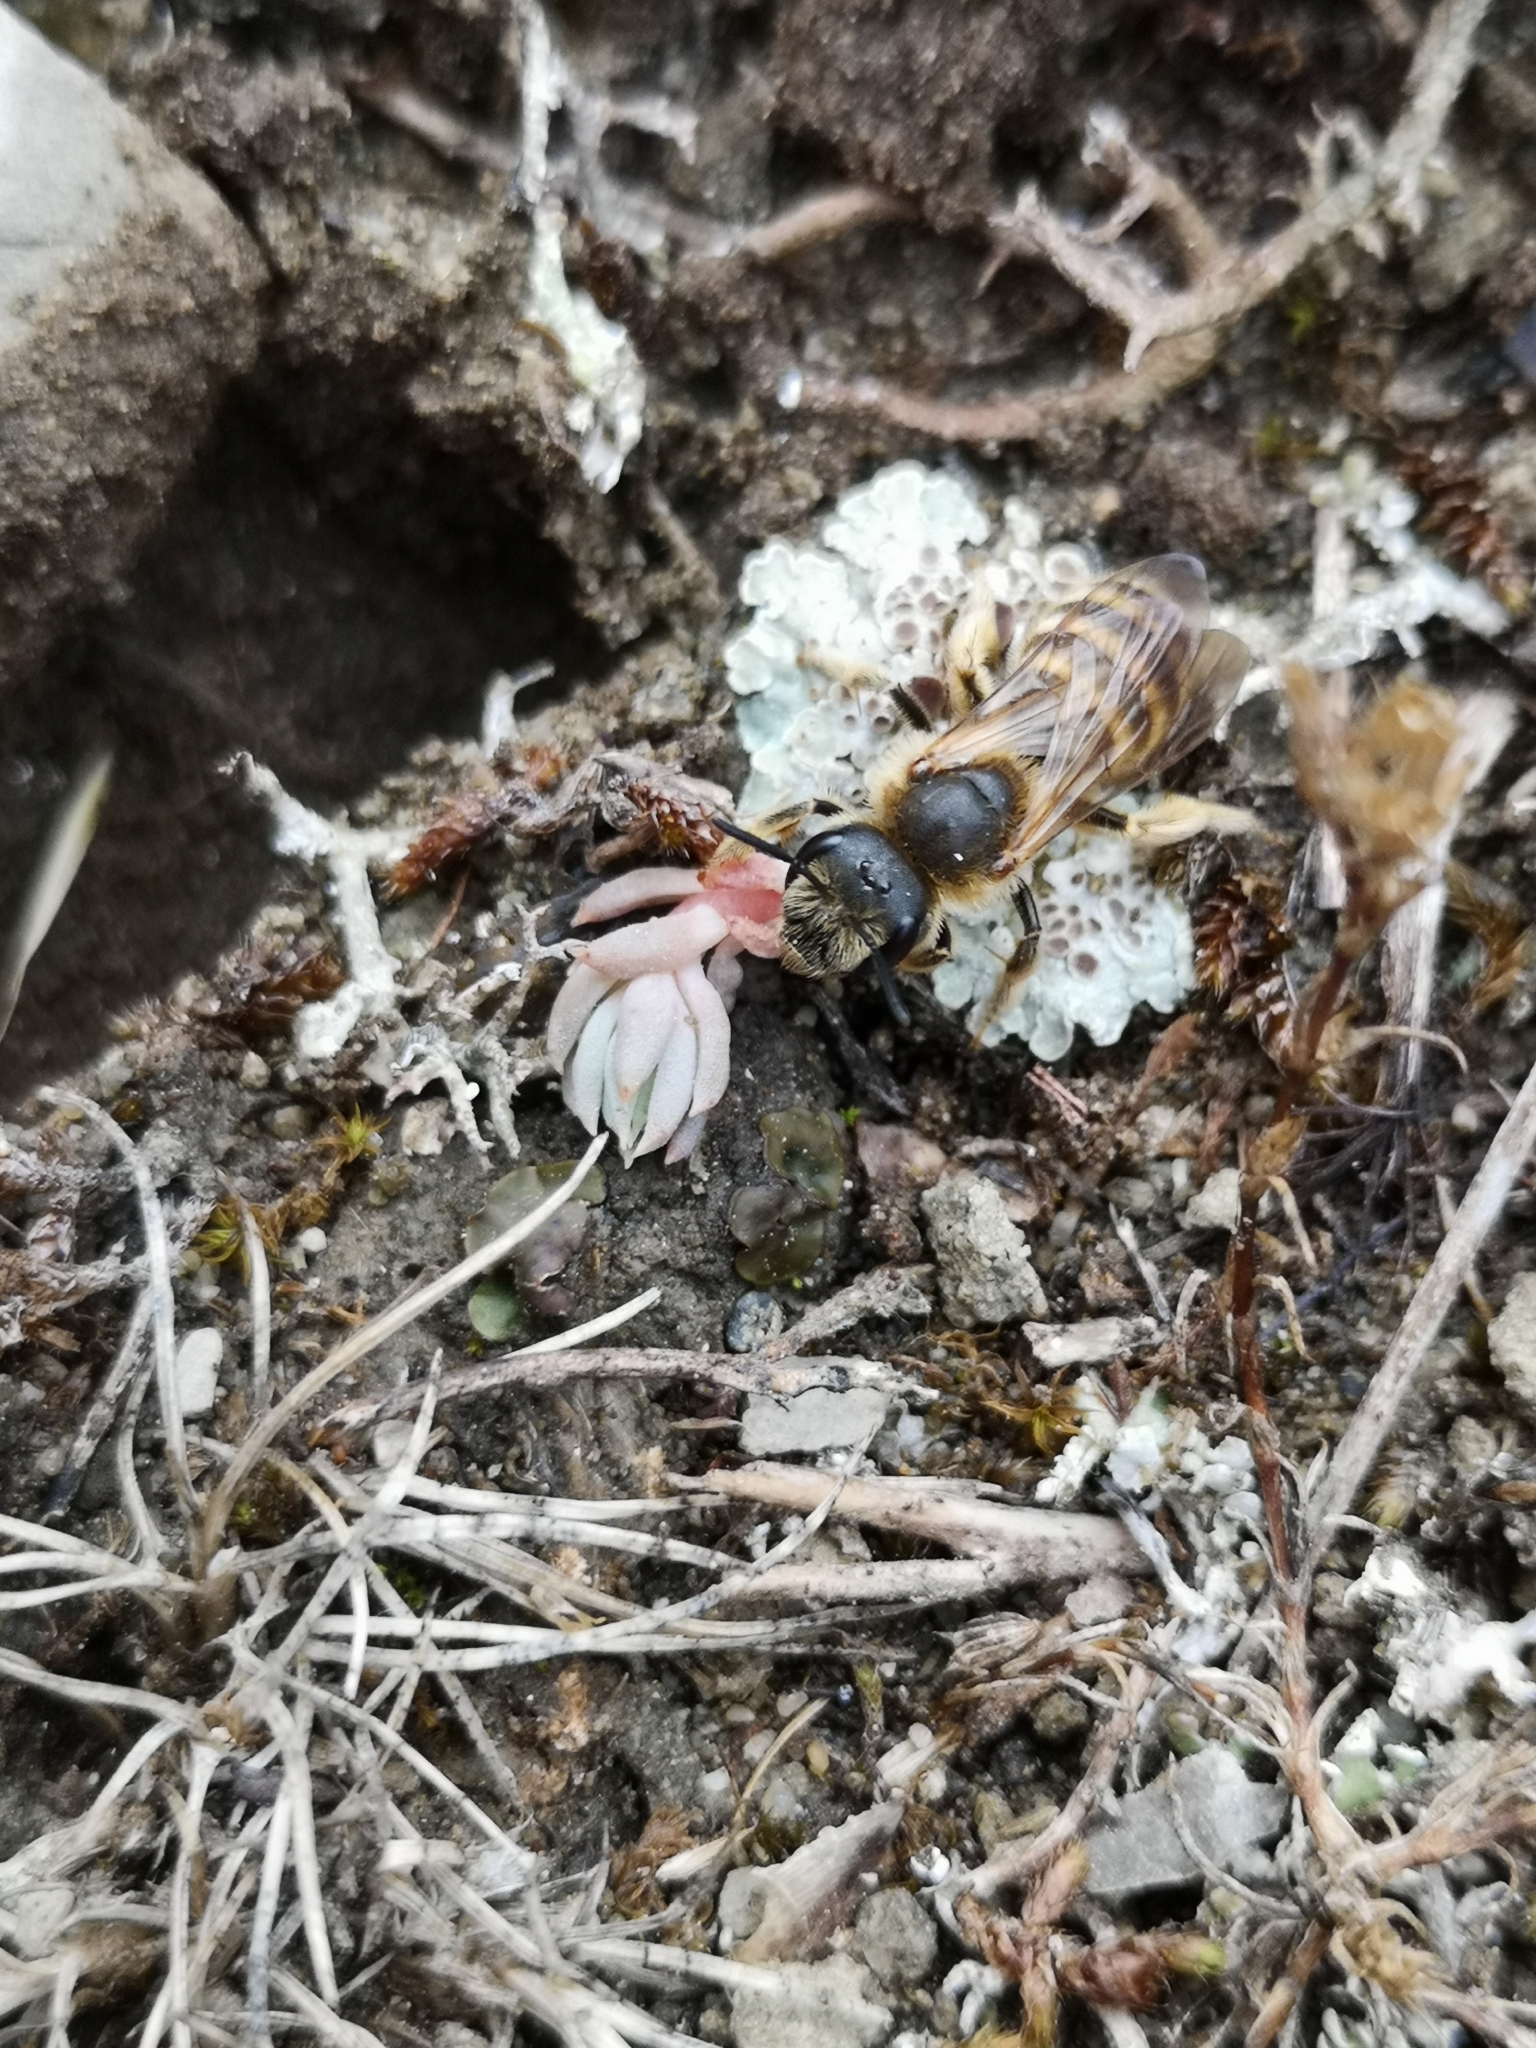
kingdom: Animalia
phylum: Arthropoda
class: Insecta
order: Hymenoptera
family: Halictidae
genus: Halictus
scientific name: Halictus scabiosae
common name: Great banded furrow bee
